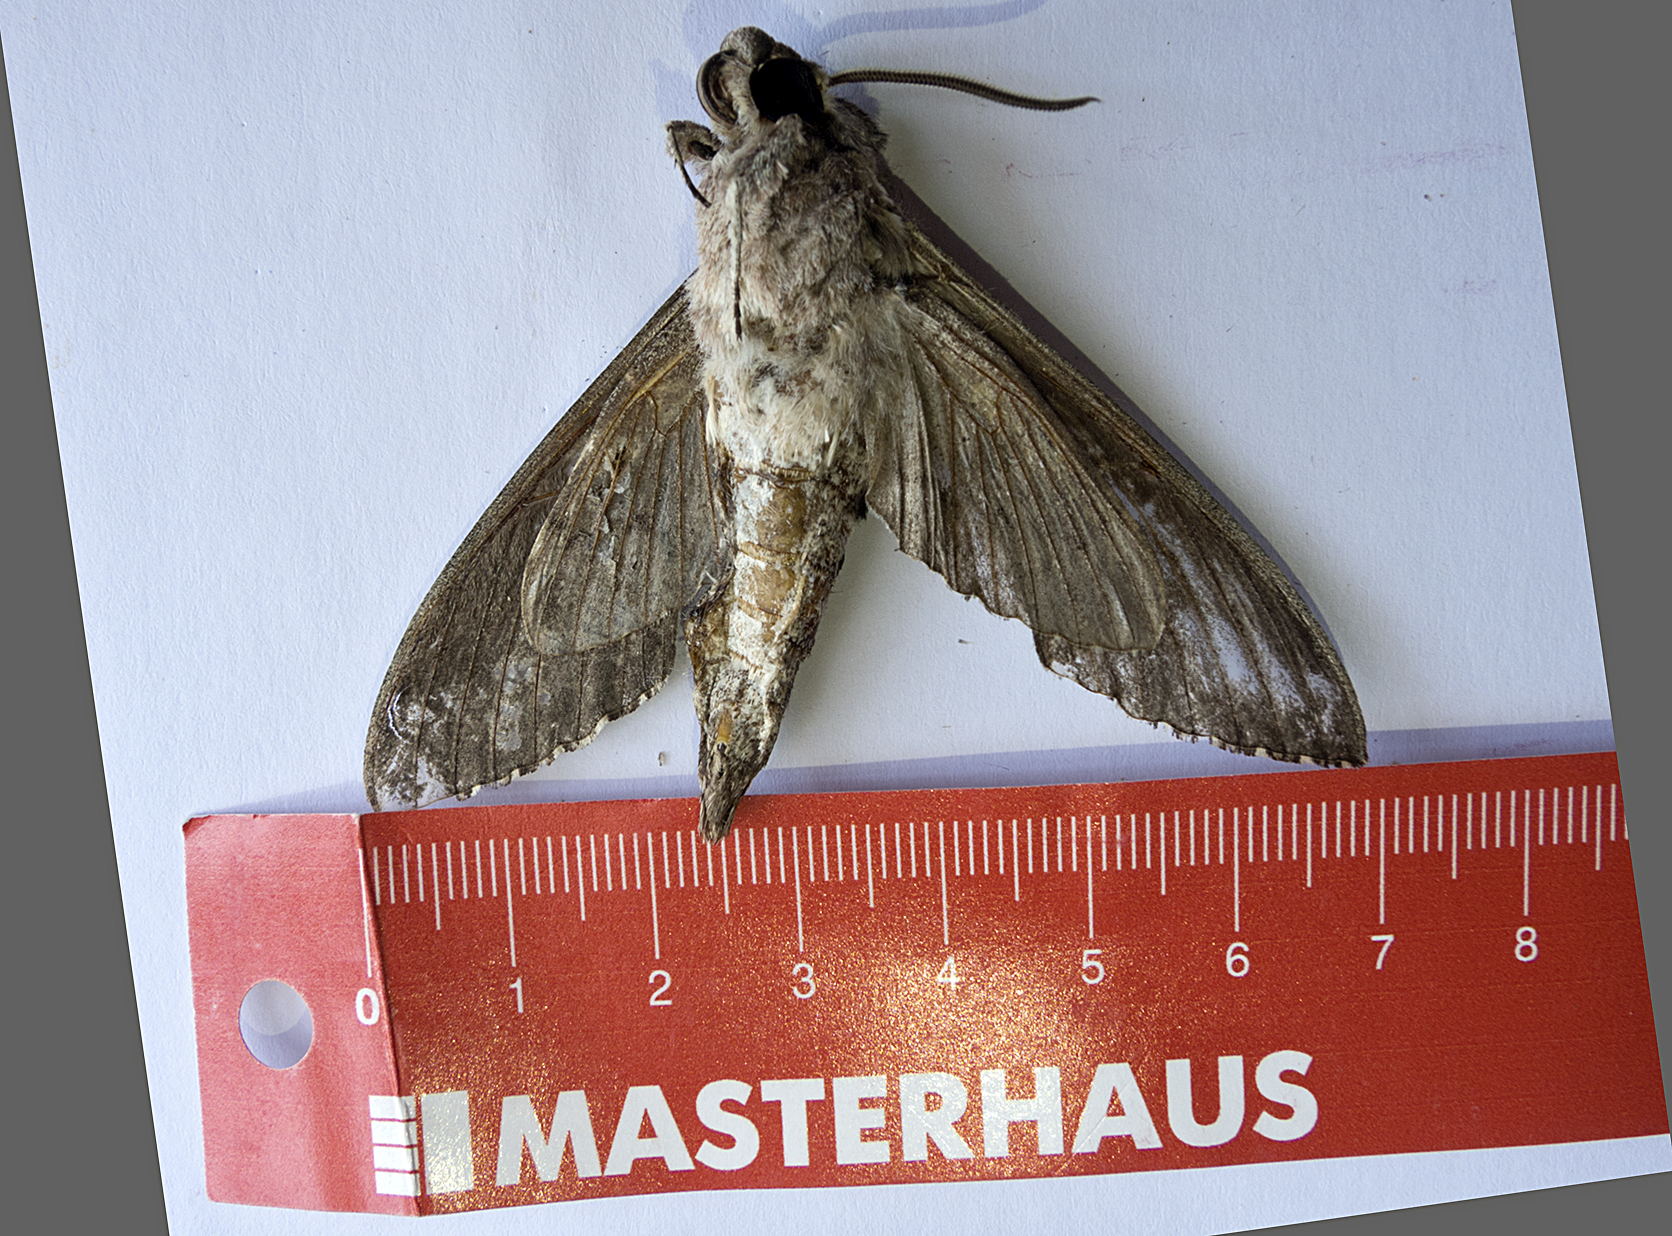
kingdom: Animalia
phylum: Arthropoda
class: Insecta
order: Lepidoptera
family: Sphingidae
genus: Agrius
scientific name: Agrius convolvuli
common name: Convolvulus hawkmoth
